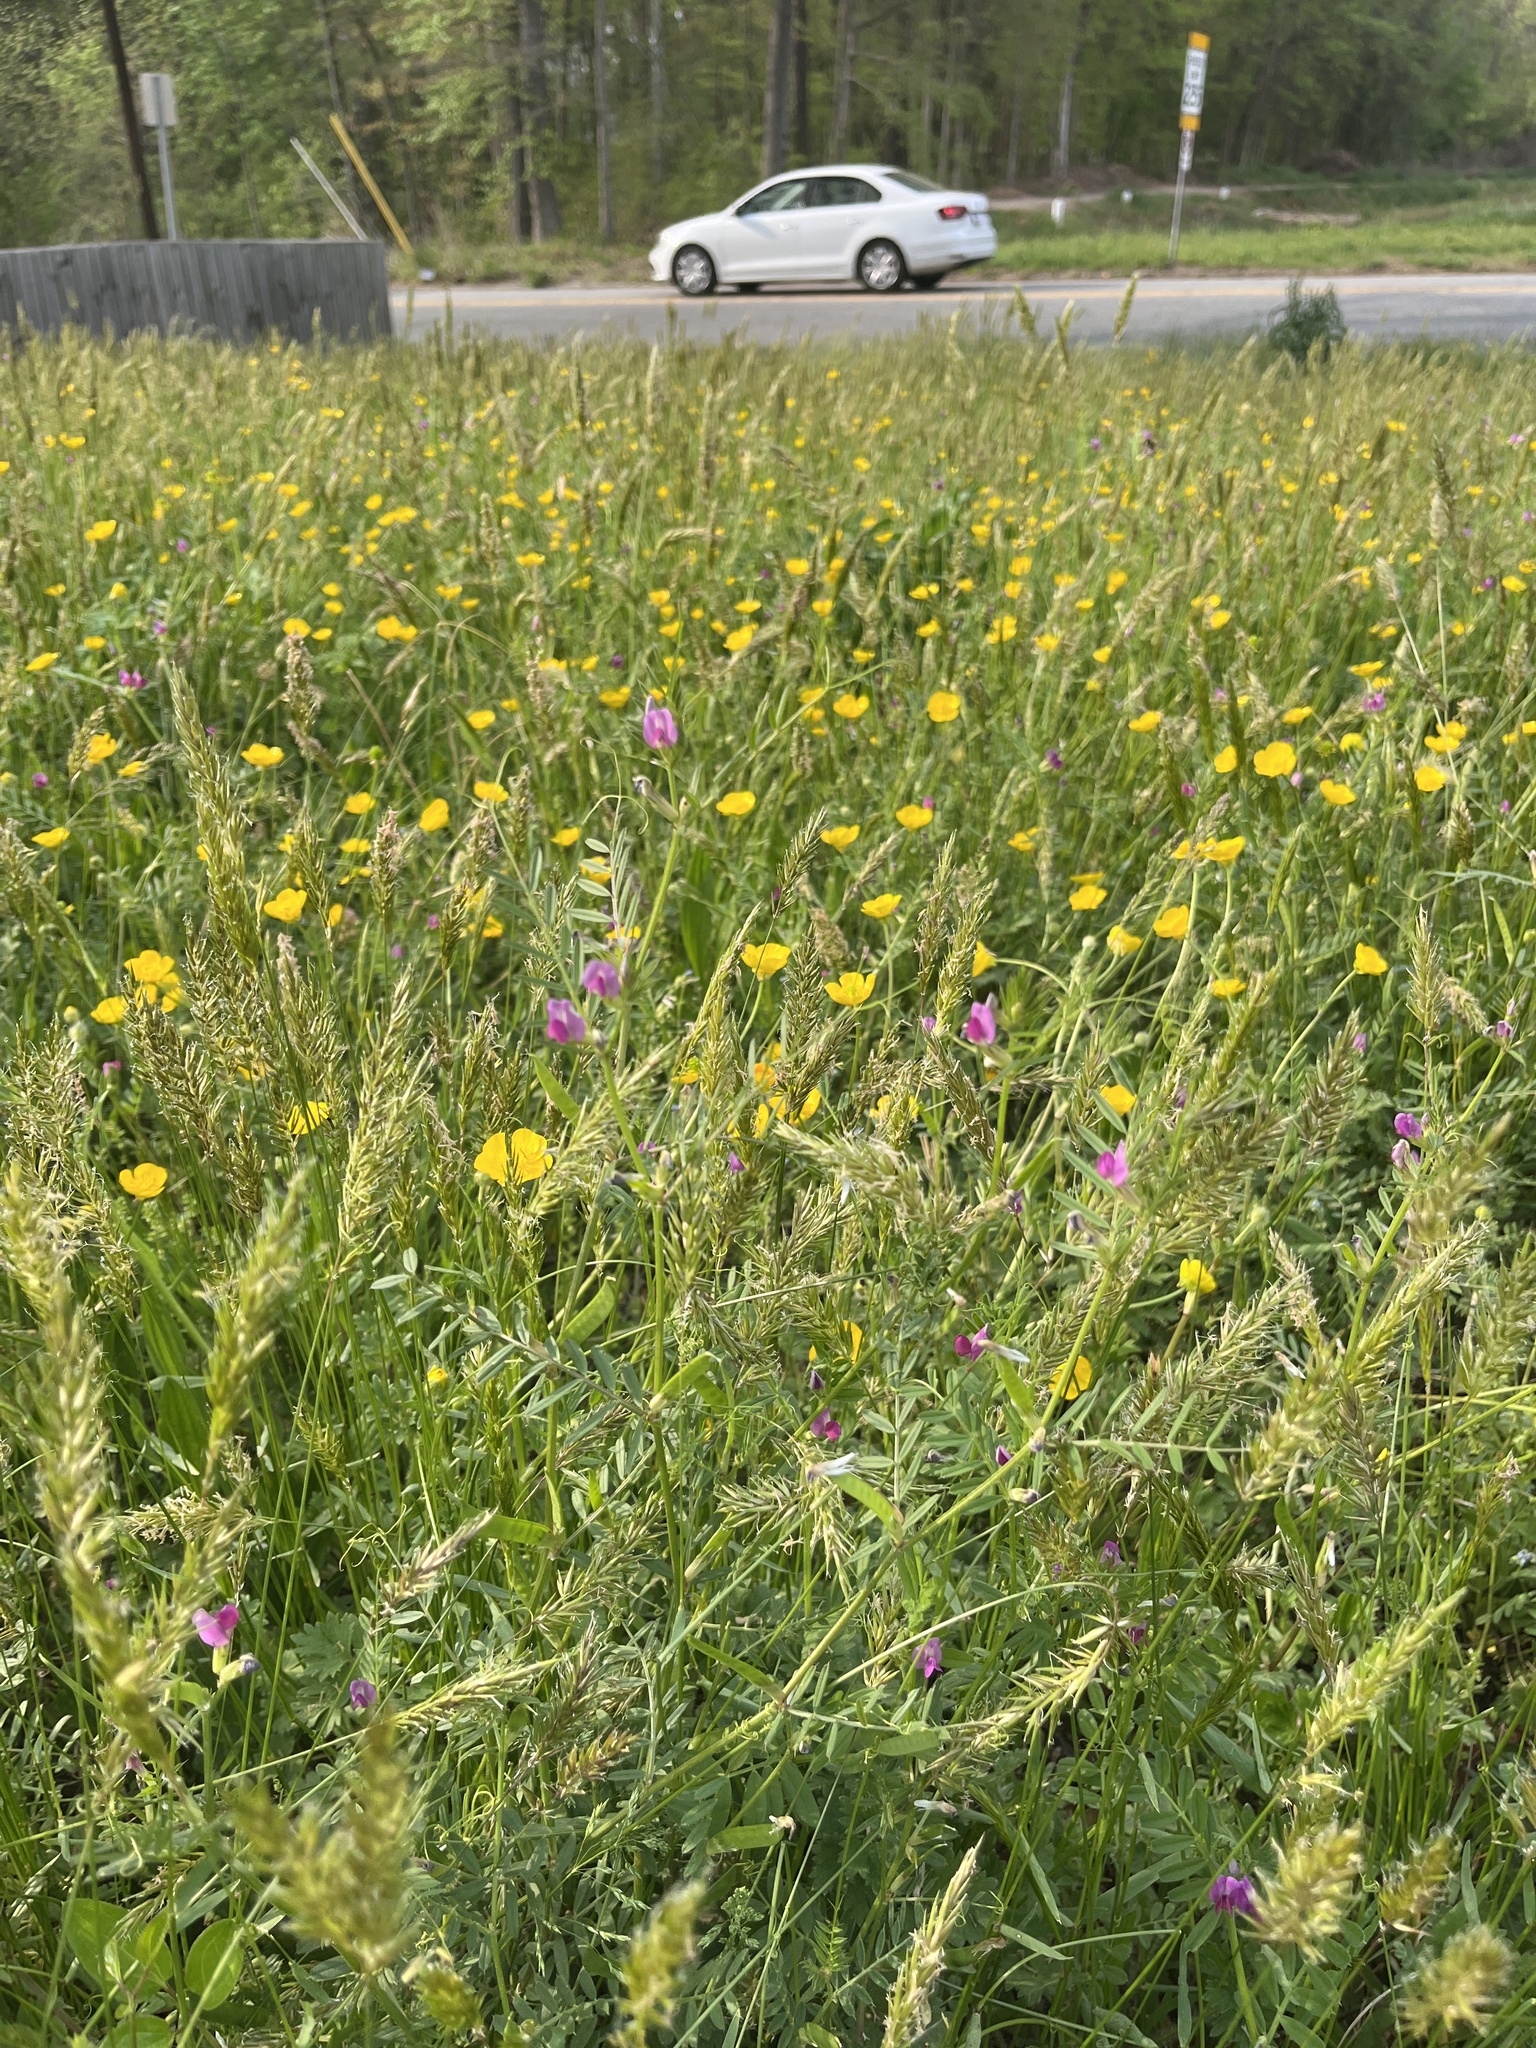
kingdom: Plantae
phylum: Tracheophyta
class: Magnoliopsida
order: Fabales
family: Fabaceae
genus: Vicia
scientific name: Vicia sativa
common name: Garden vetch
